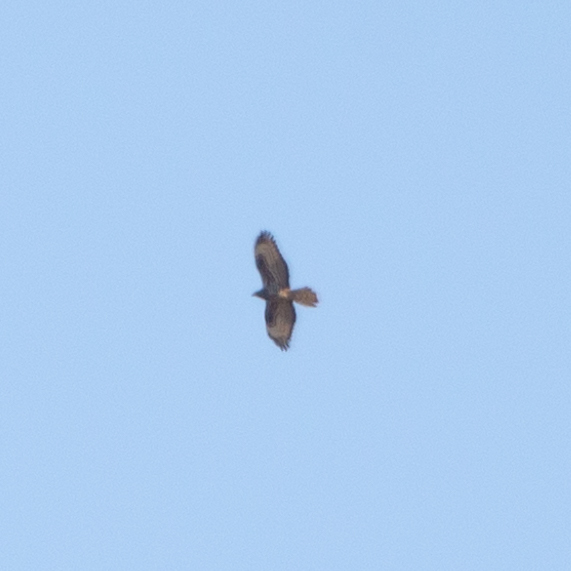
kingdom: Animalia
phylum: Chordata
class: Aves
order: Accipitriformes
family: Accipitridae
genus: Pernis
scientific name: Pernis apivorus
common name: European honey buzzard
